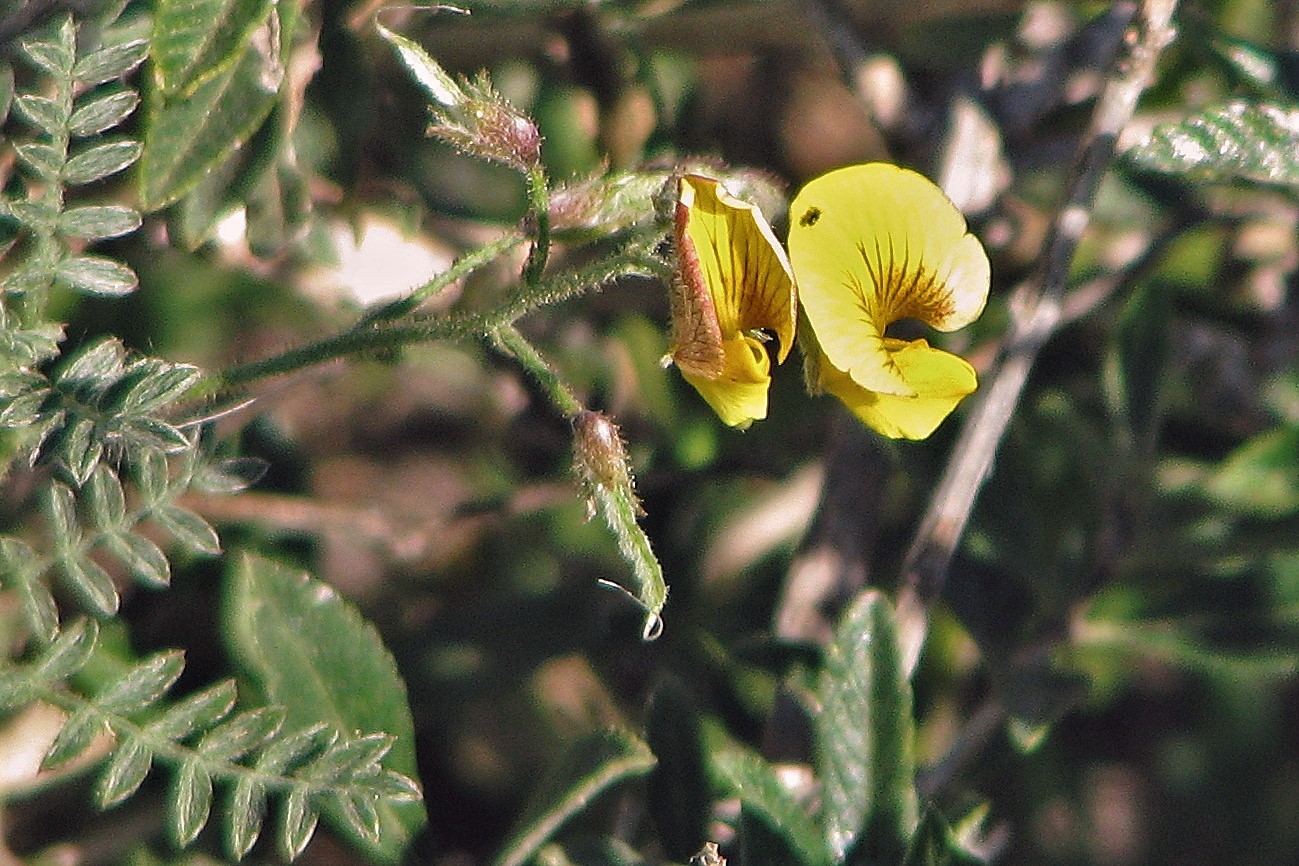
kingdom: Plantae
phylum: Tracheophyta
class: Magnoliopsida
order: Fabales
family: Fabaceae
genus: Adesmia
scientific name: Adesmia incana
